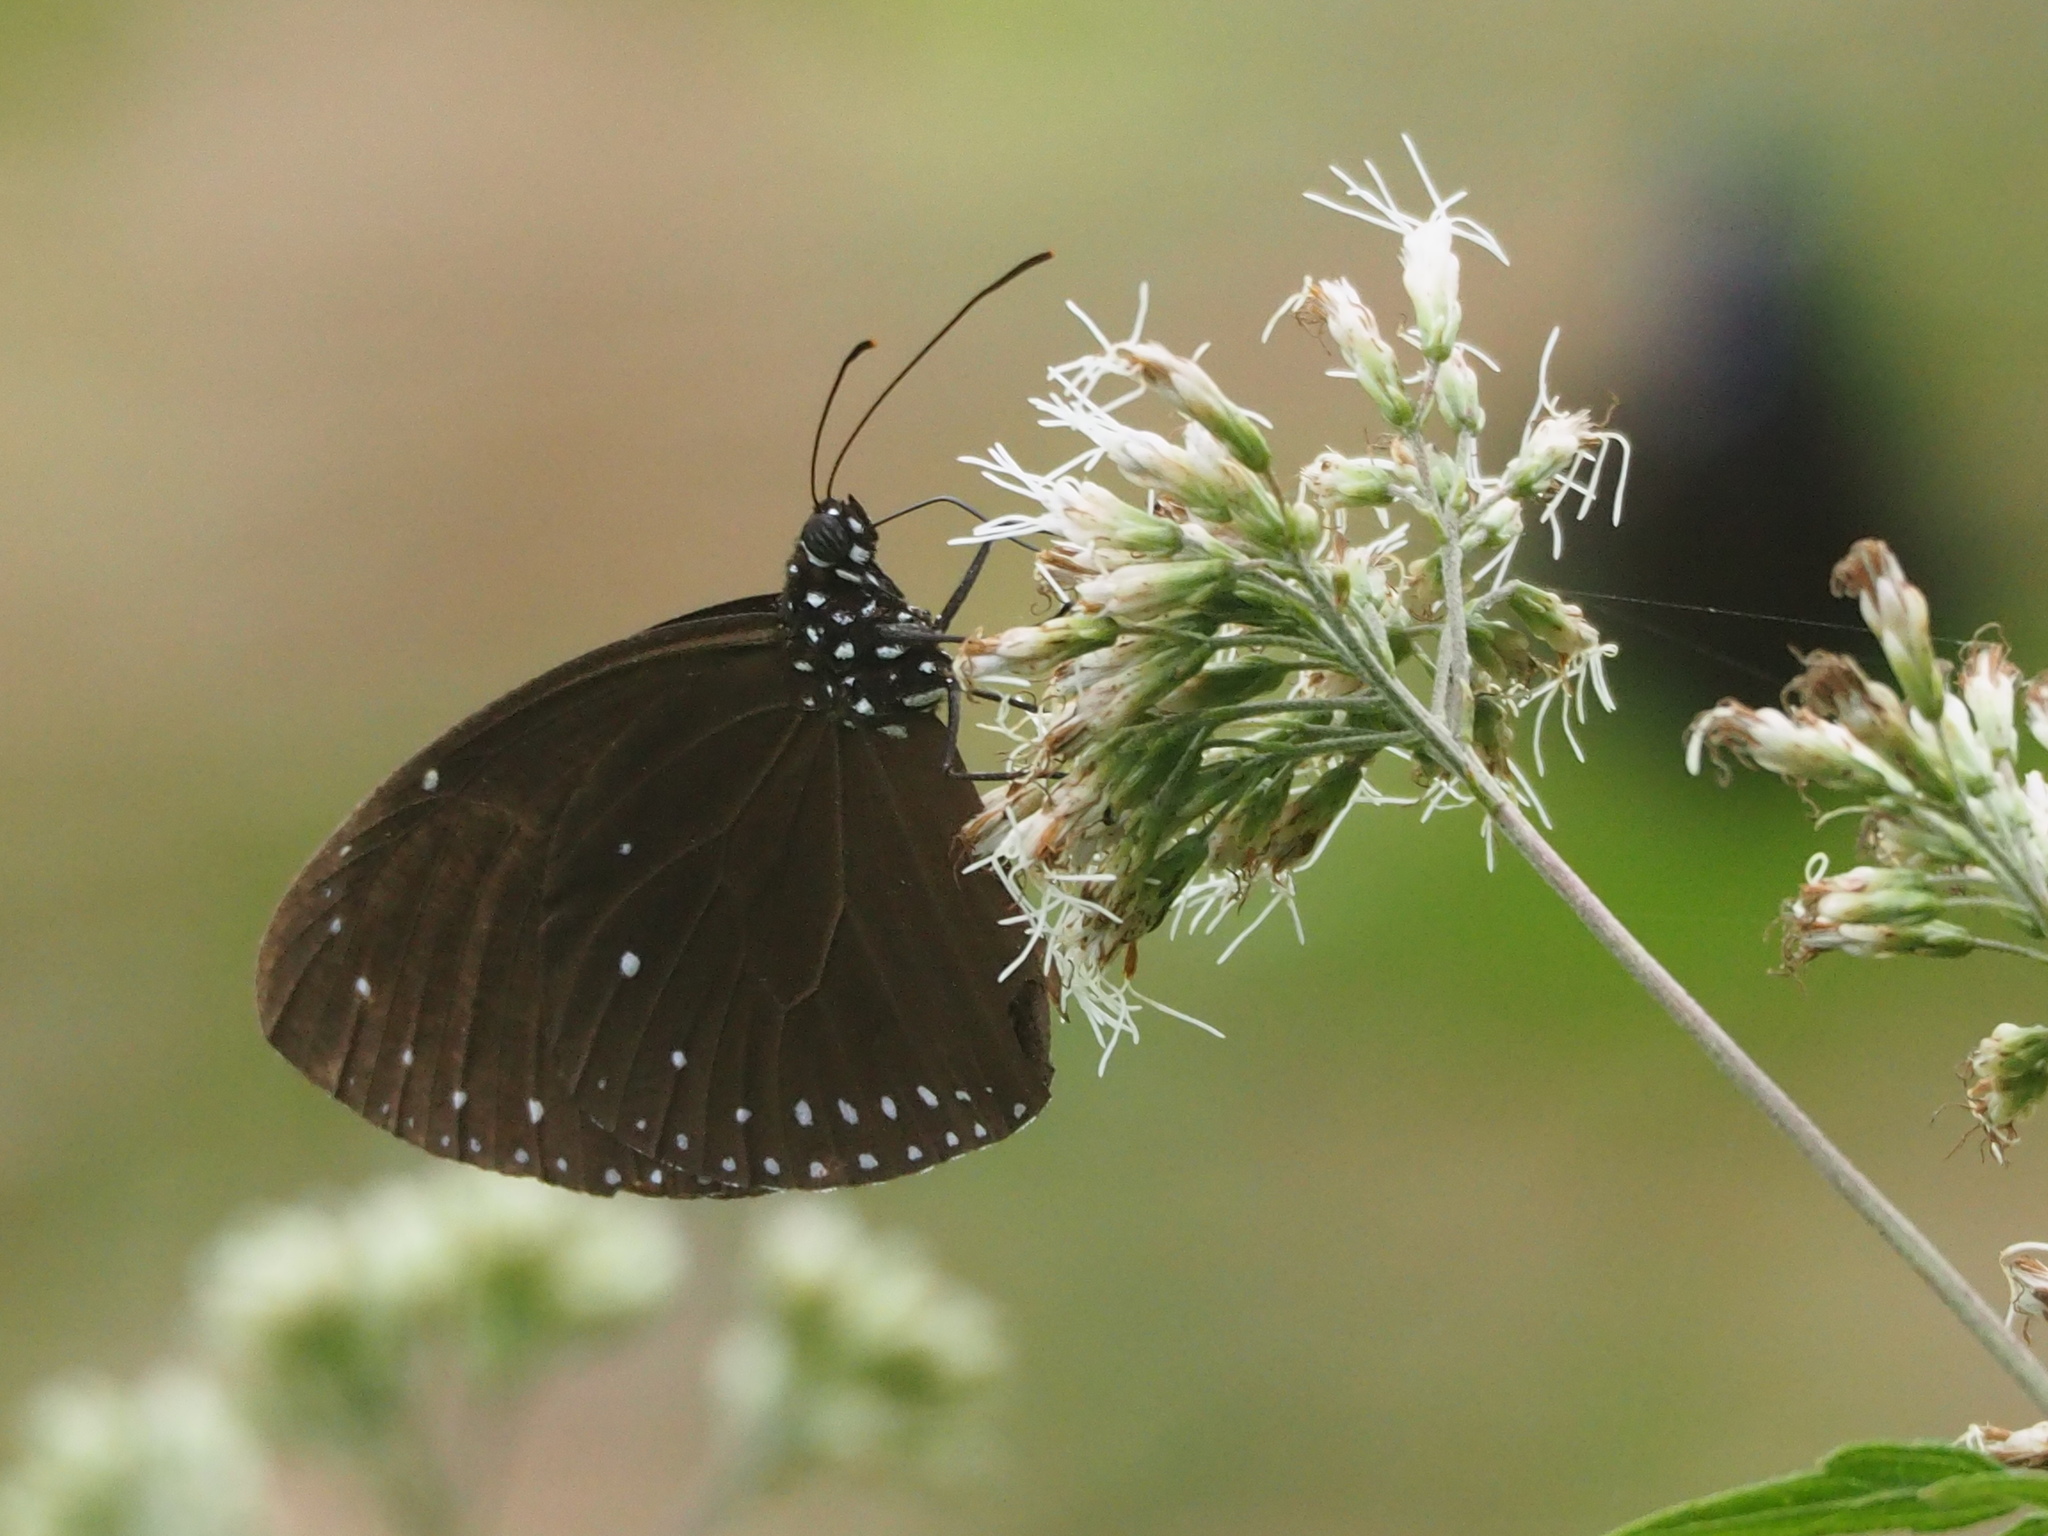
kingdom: Animalia
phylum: Arthropoda
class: Insecta
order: Lepidoptera
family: Nymphalidae
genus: Euploea
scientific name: Euploea tulliolus
